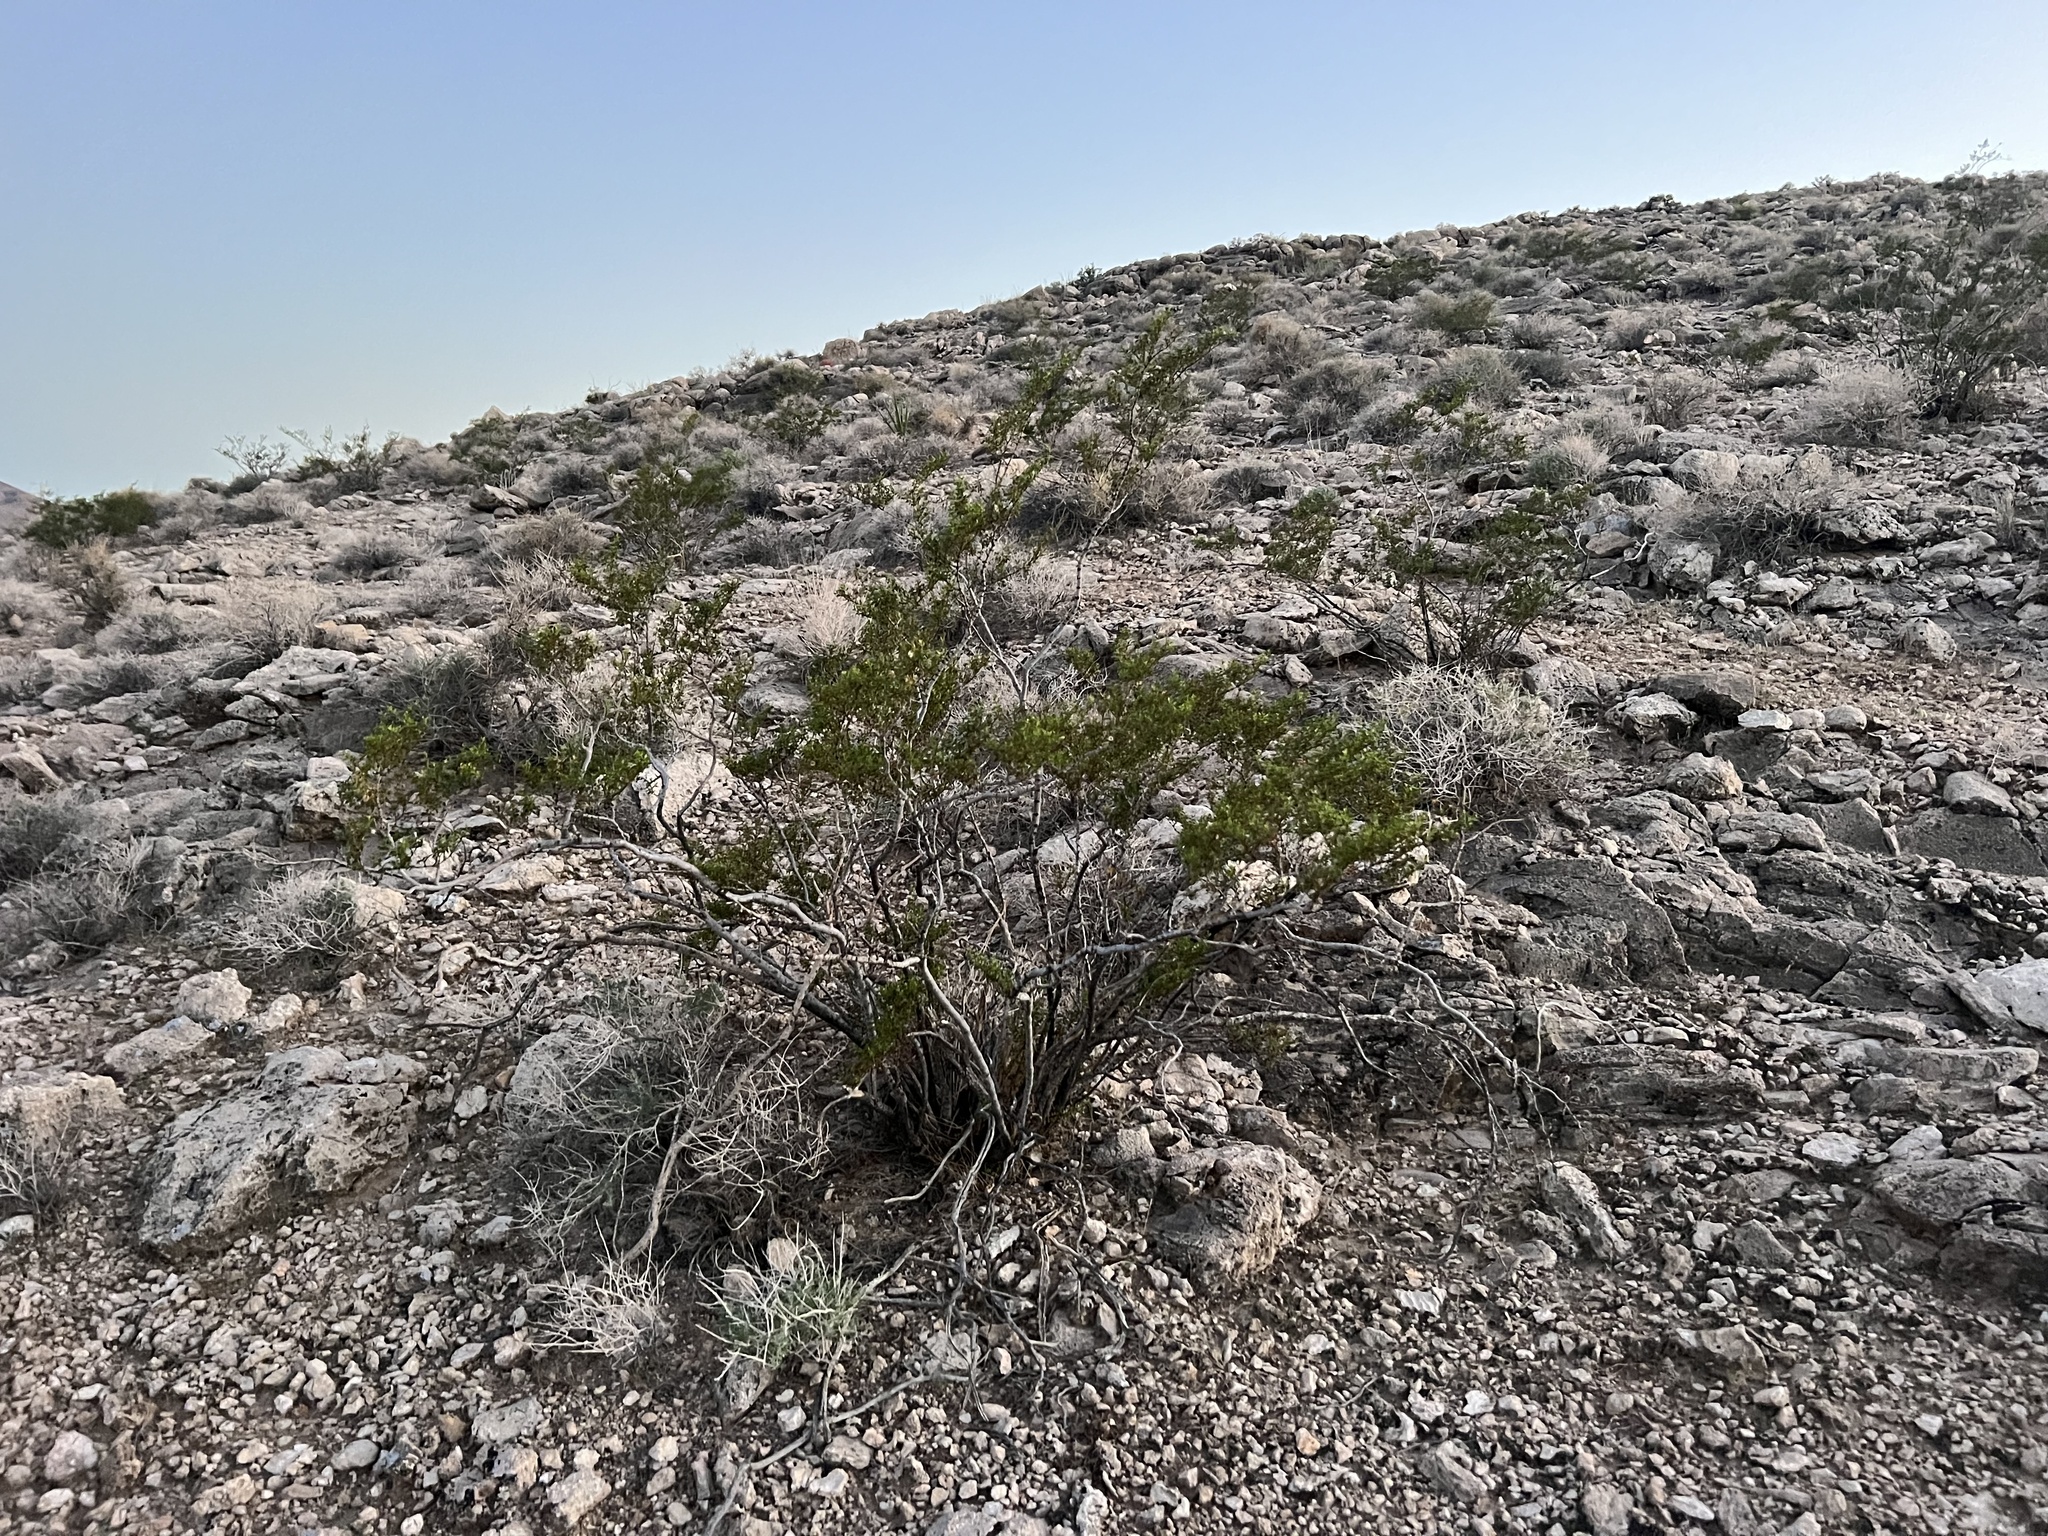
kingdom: Plantae
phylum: Tracheophyta
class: Magnoliopsida
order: Zygophyllales
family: Zygophyllaceae
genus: Larrea
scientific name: Larrea tridentata
